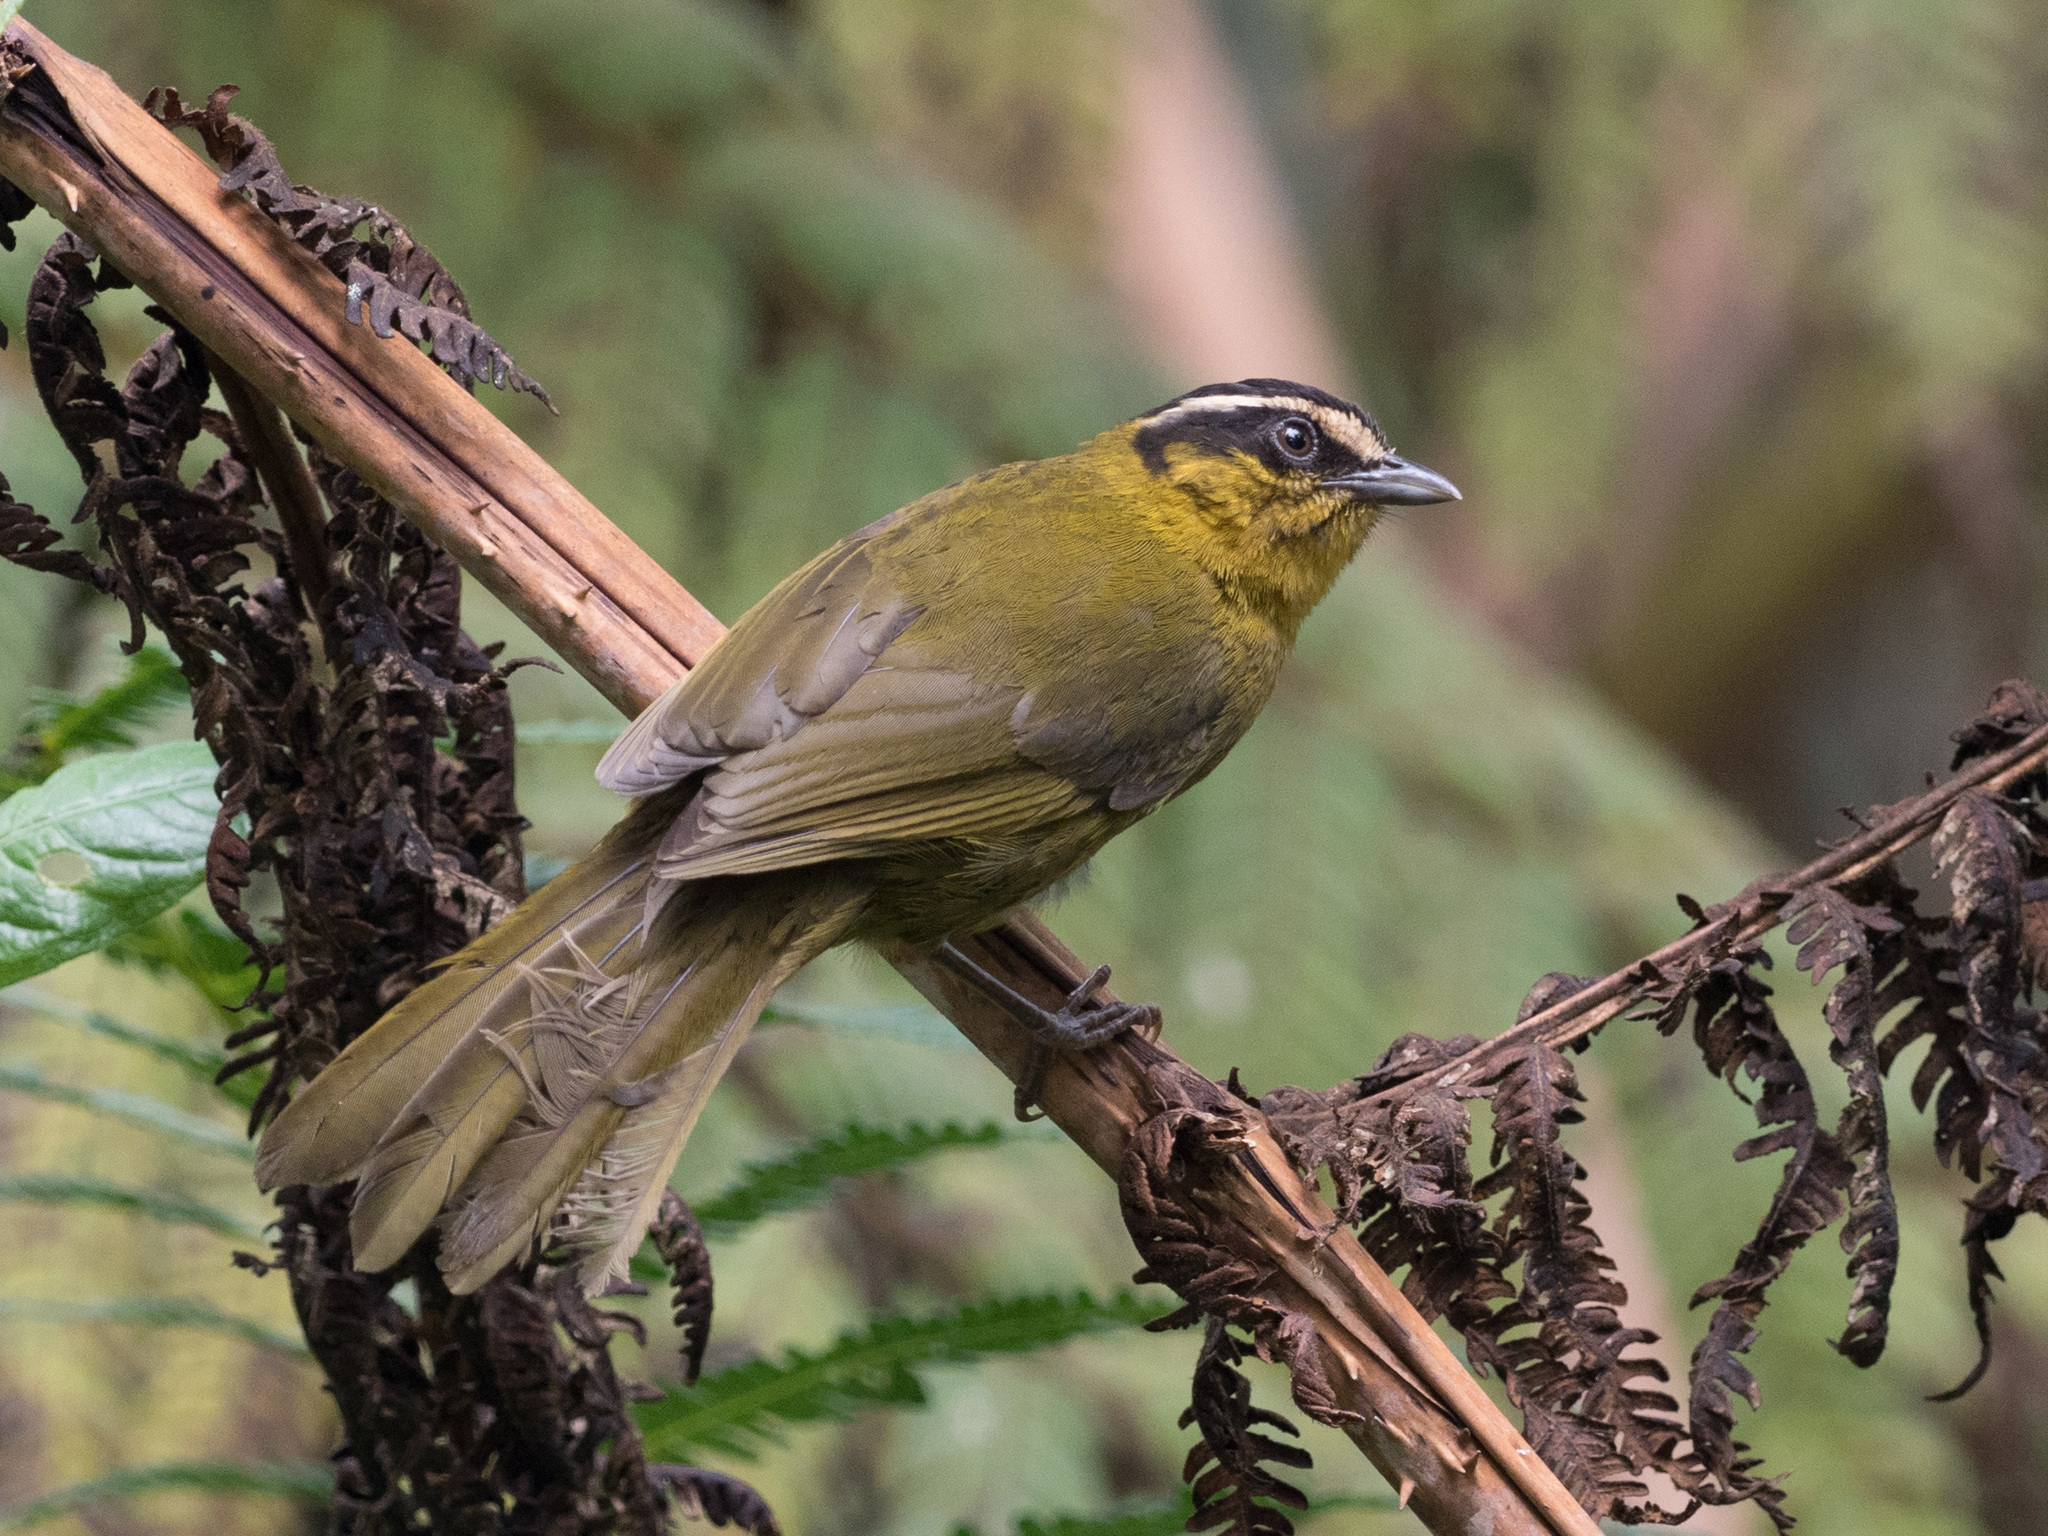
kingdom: Animalia
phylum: Chordata
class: Aves
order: Passeriformes
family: Thraupidae
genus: Kleinothraupis
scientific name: Kleinothraupis atropileus
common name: Black-capped hemispingus
